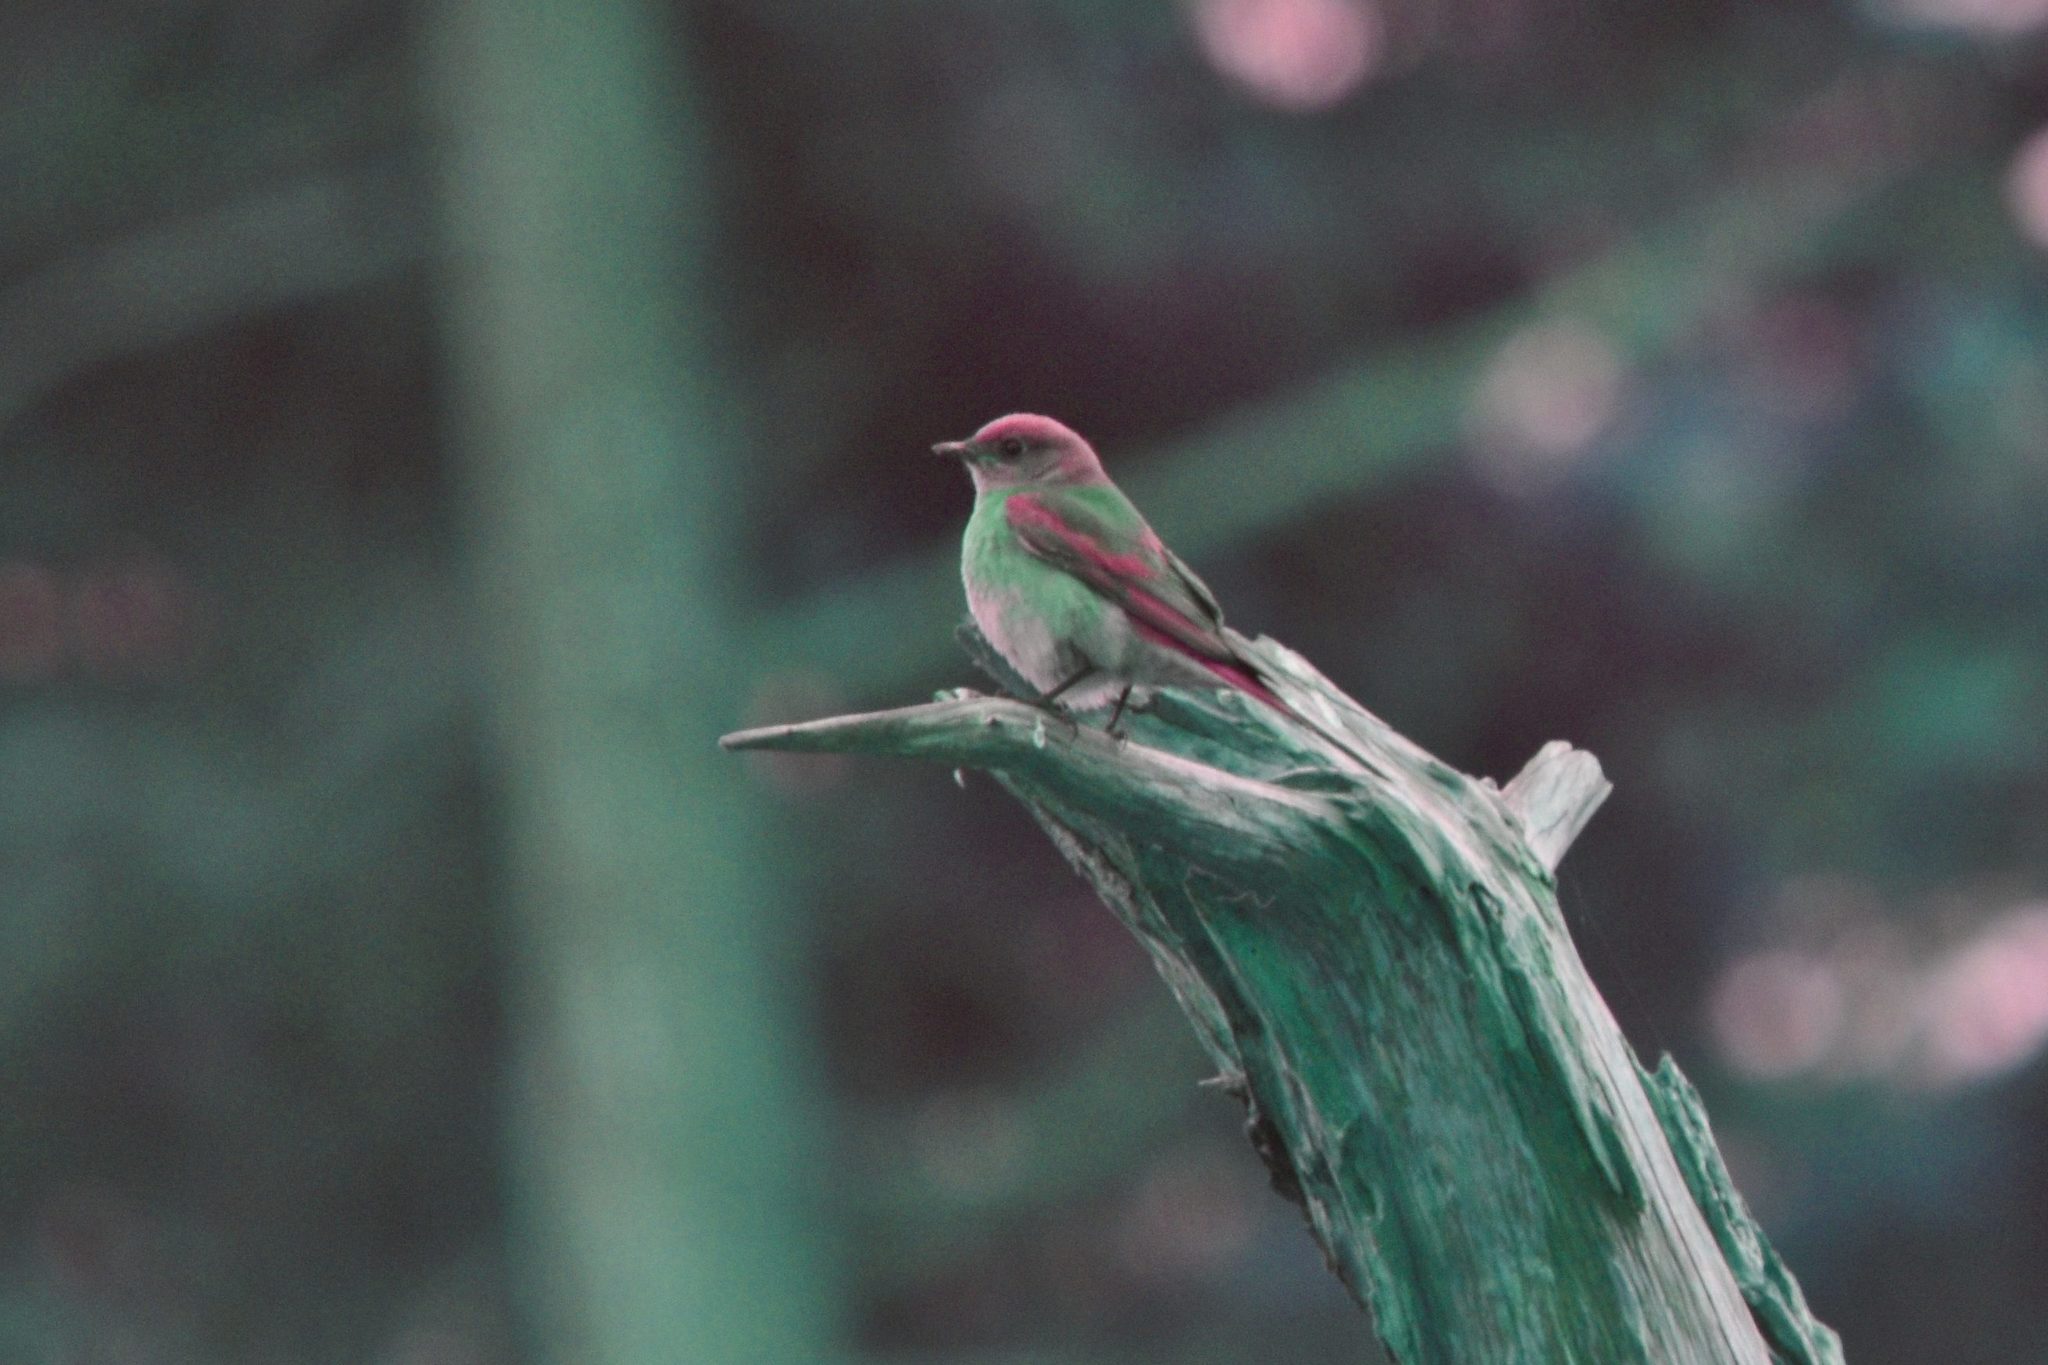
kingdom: Animalia
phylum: Chordata
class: Aves
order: Passeriformes
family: Turdidae
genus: Sialia
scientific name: Sialia mexicana
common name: Western bluebird
